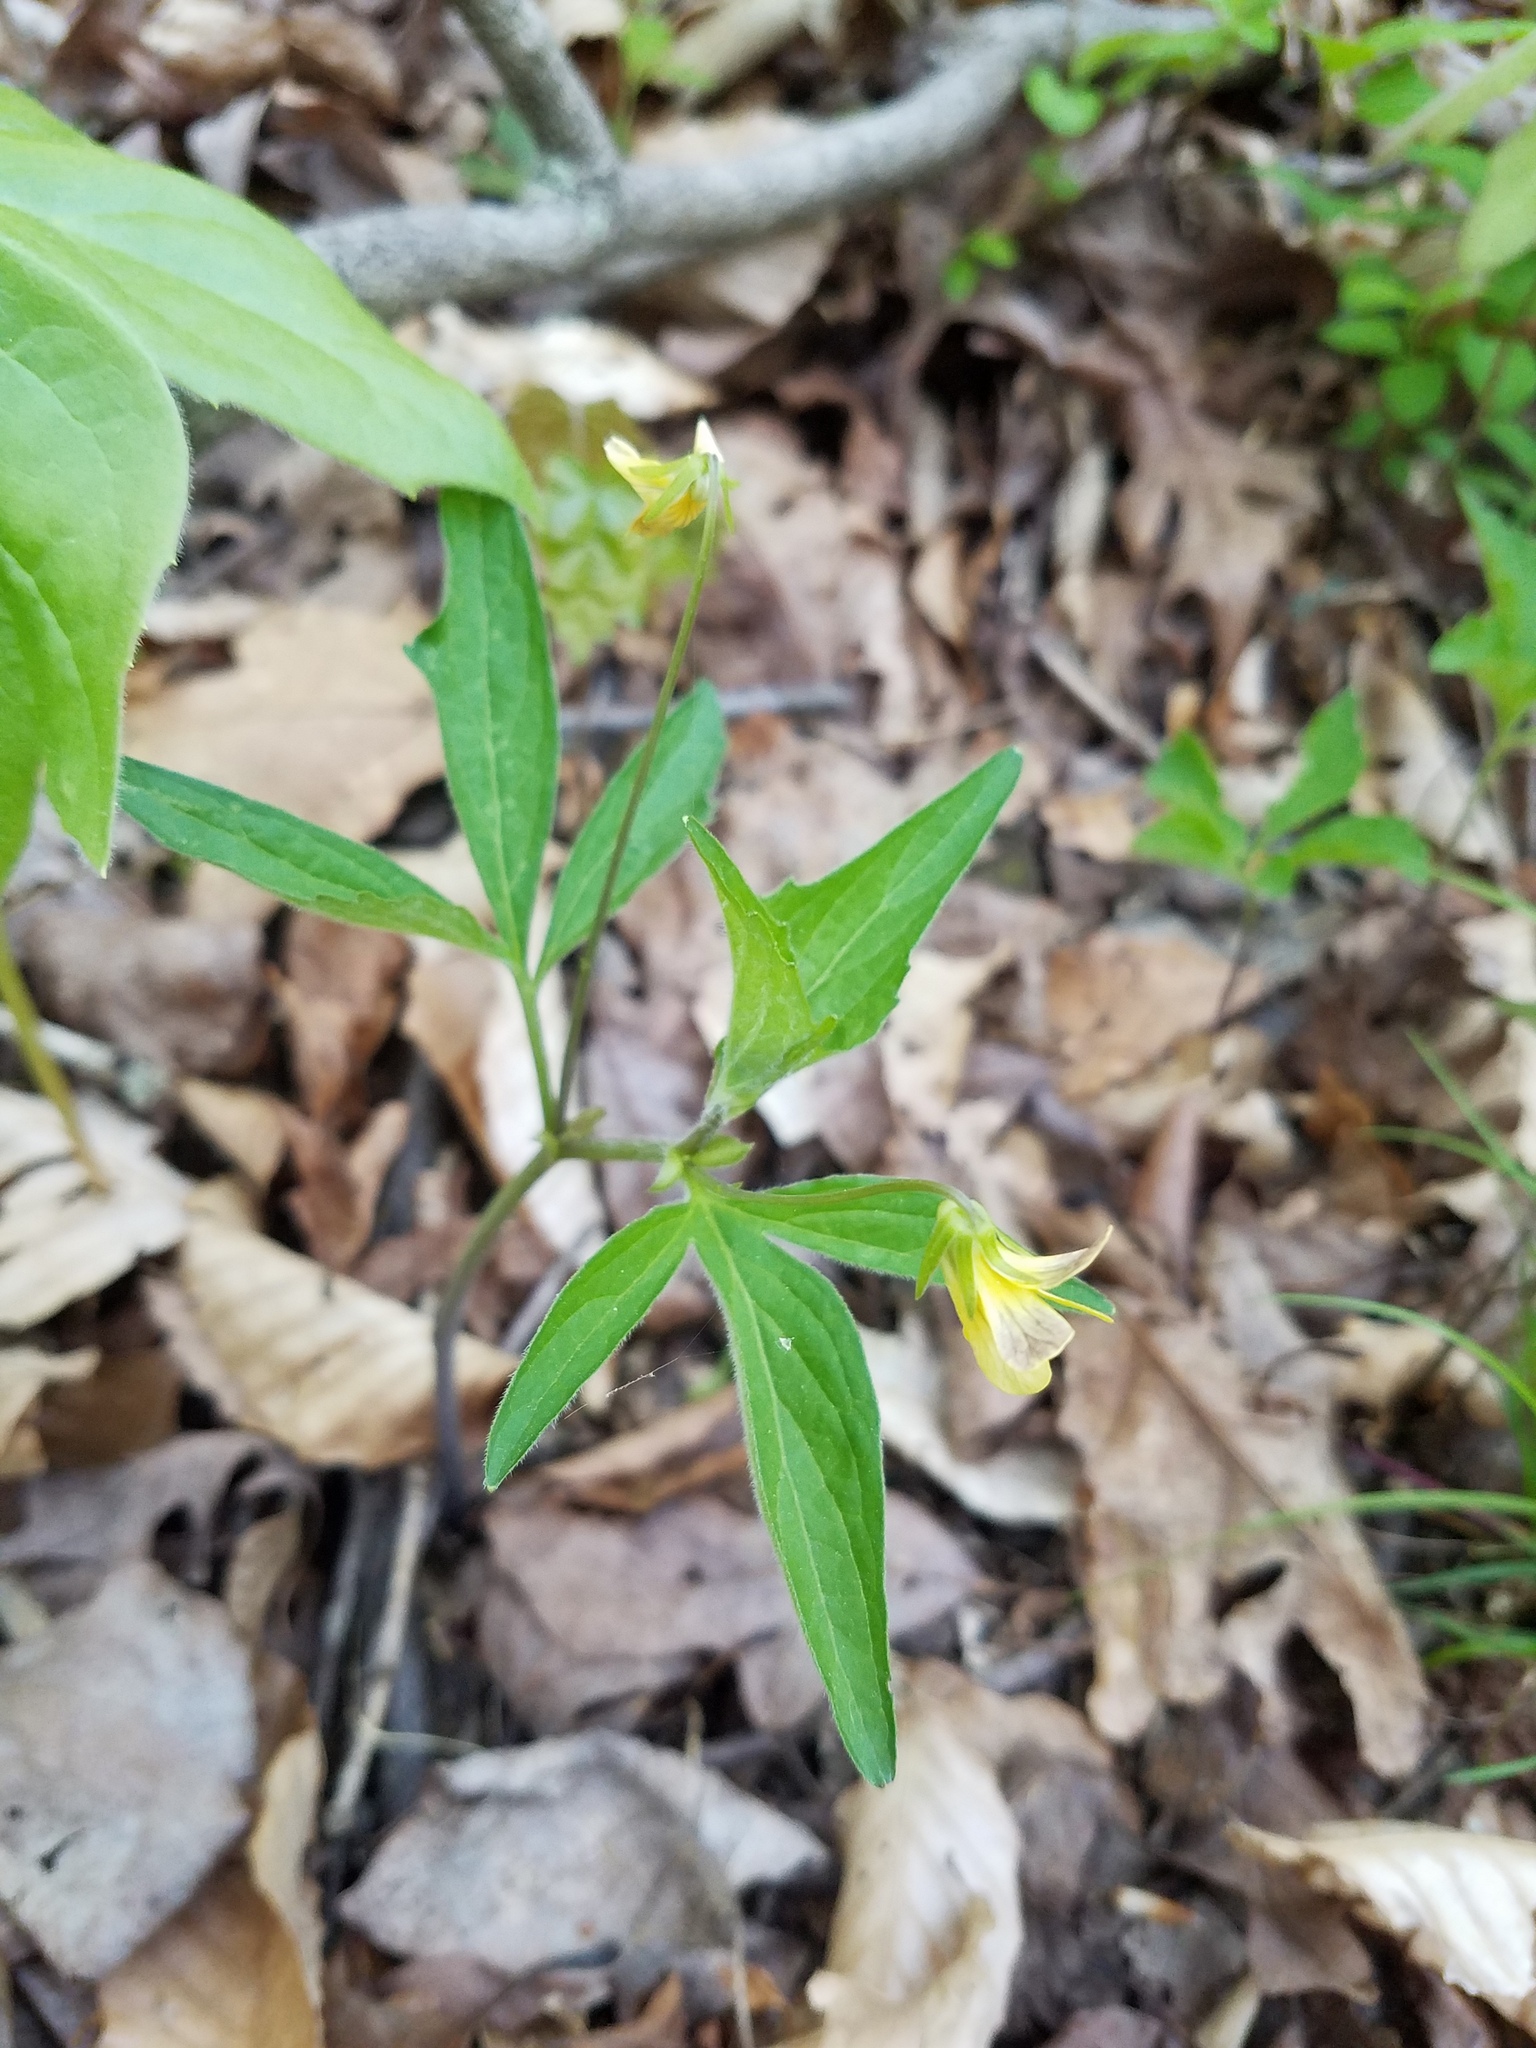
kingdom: Plantae
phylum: Tracheophyta
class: Magnoliopsida
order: Malpighiales
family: Violaceae
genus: Viola
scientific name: Viola tripartita
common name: Three-part violet
